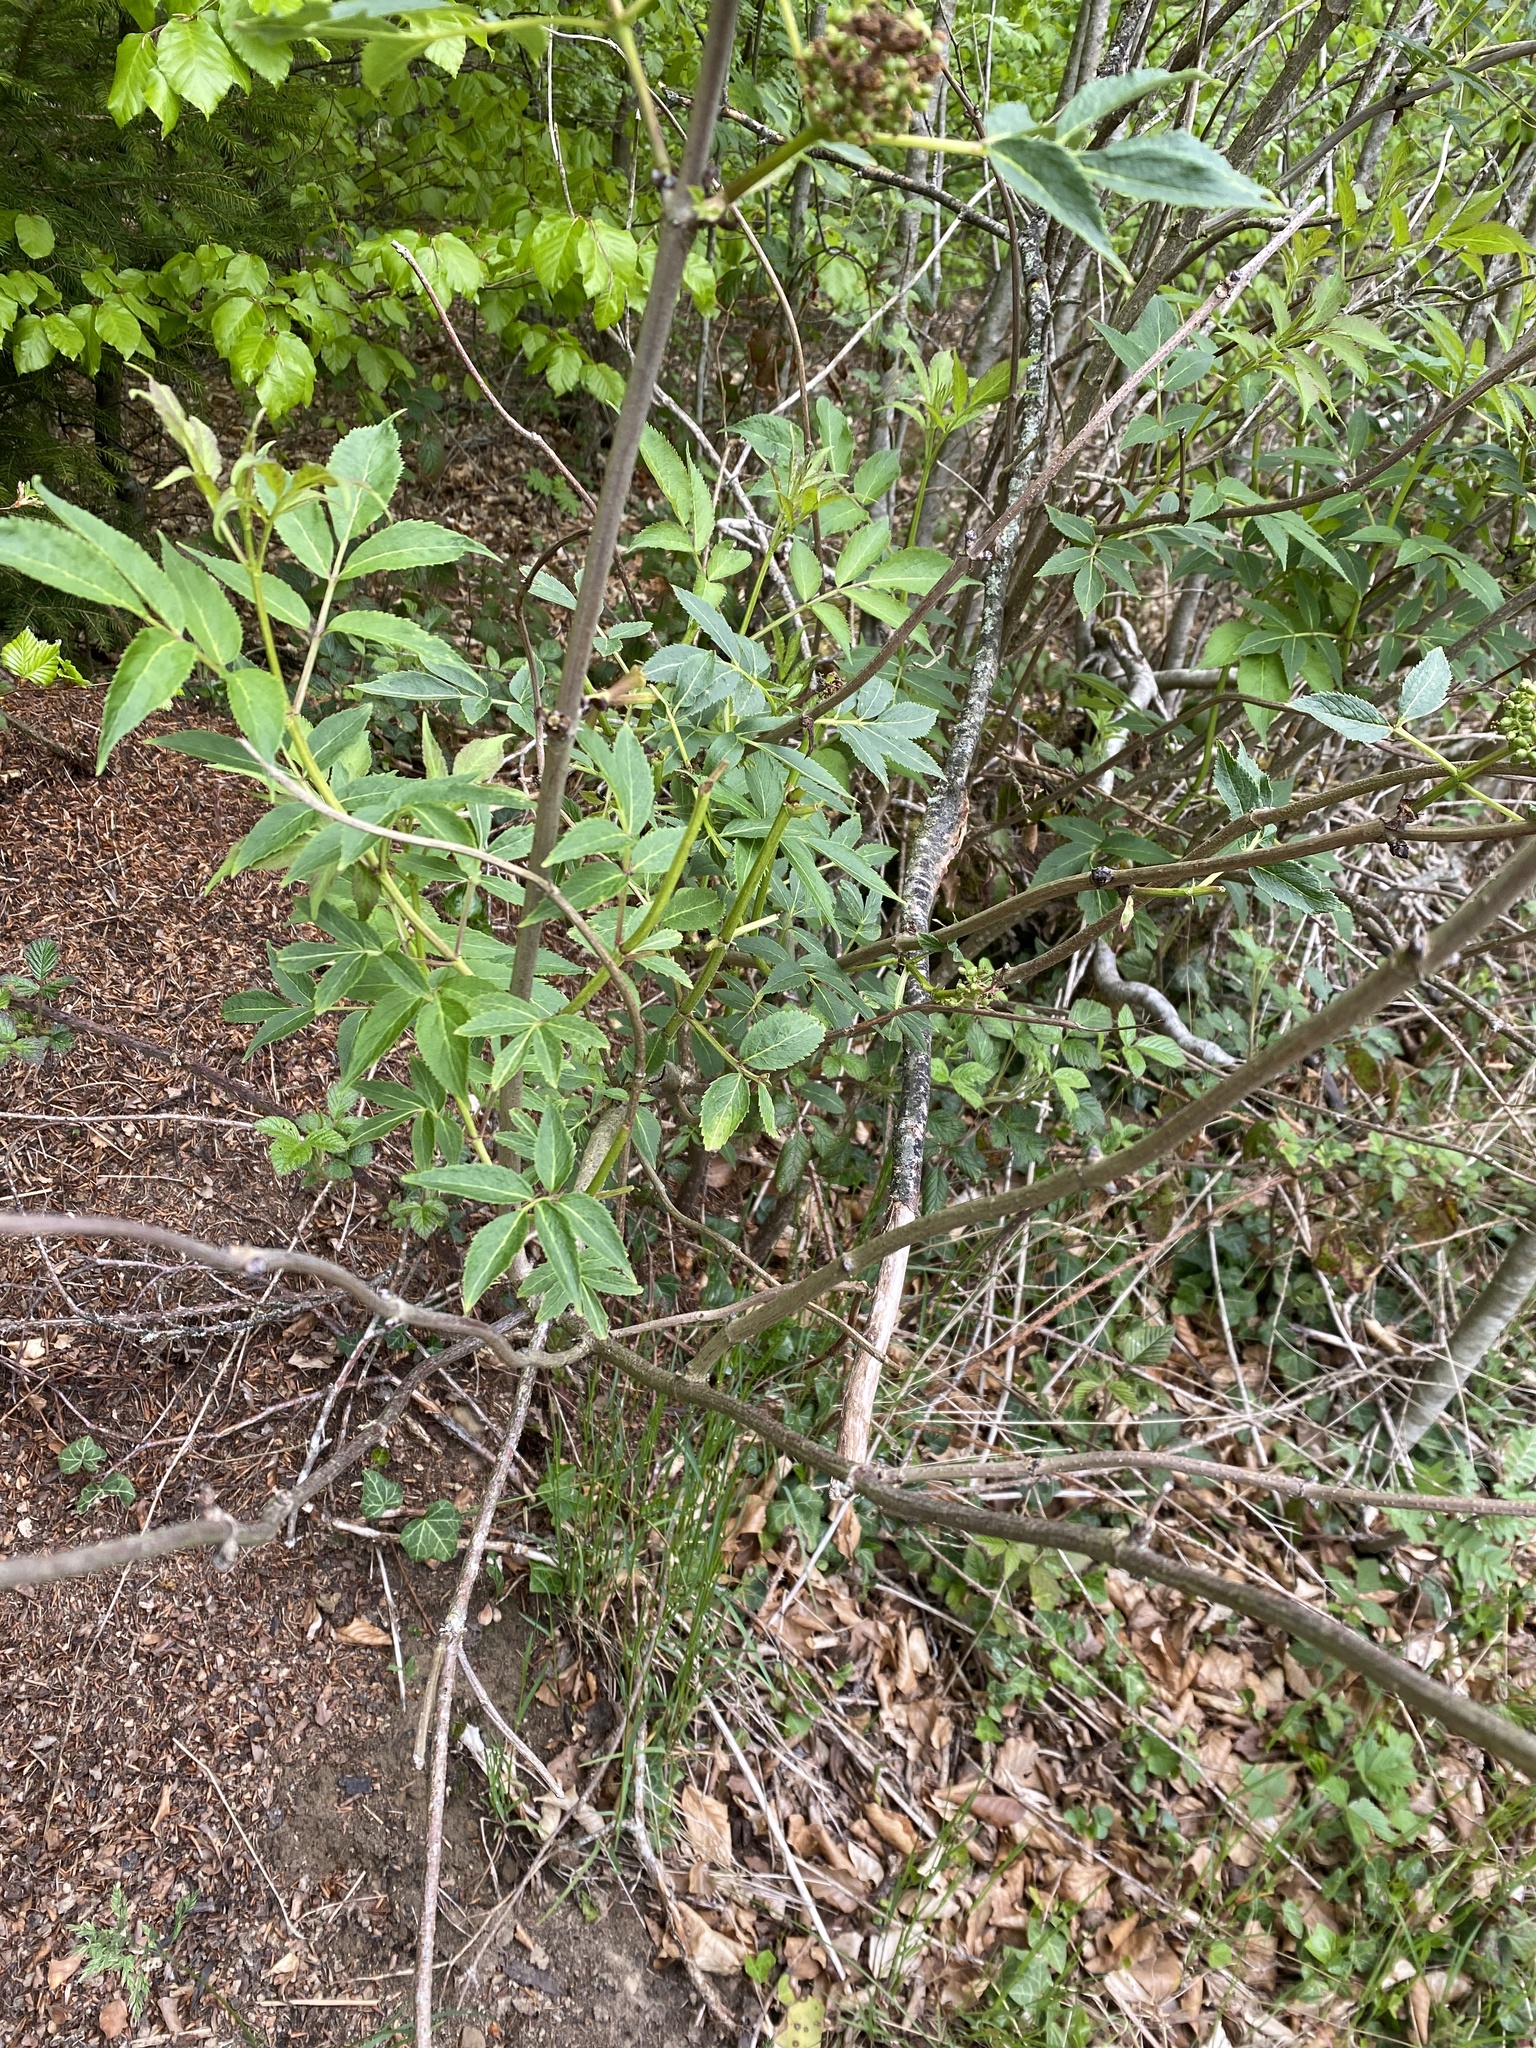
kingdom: Plantae
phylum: Tracheophyta
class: Magnoliopsida
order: Dipsacales
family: Viburnaceae
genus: Sambucus
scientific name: Sambucus racemosa
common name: Red-berried elder
